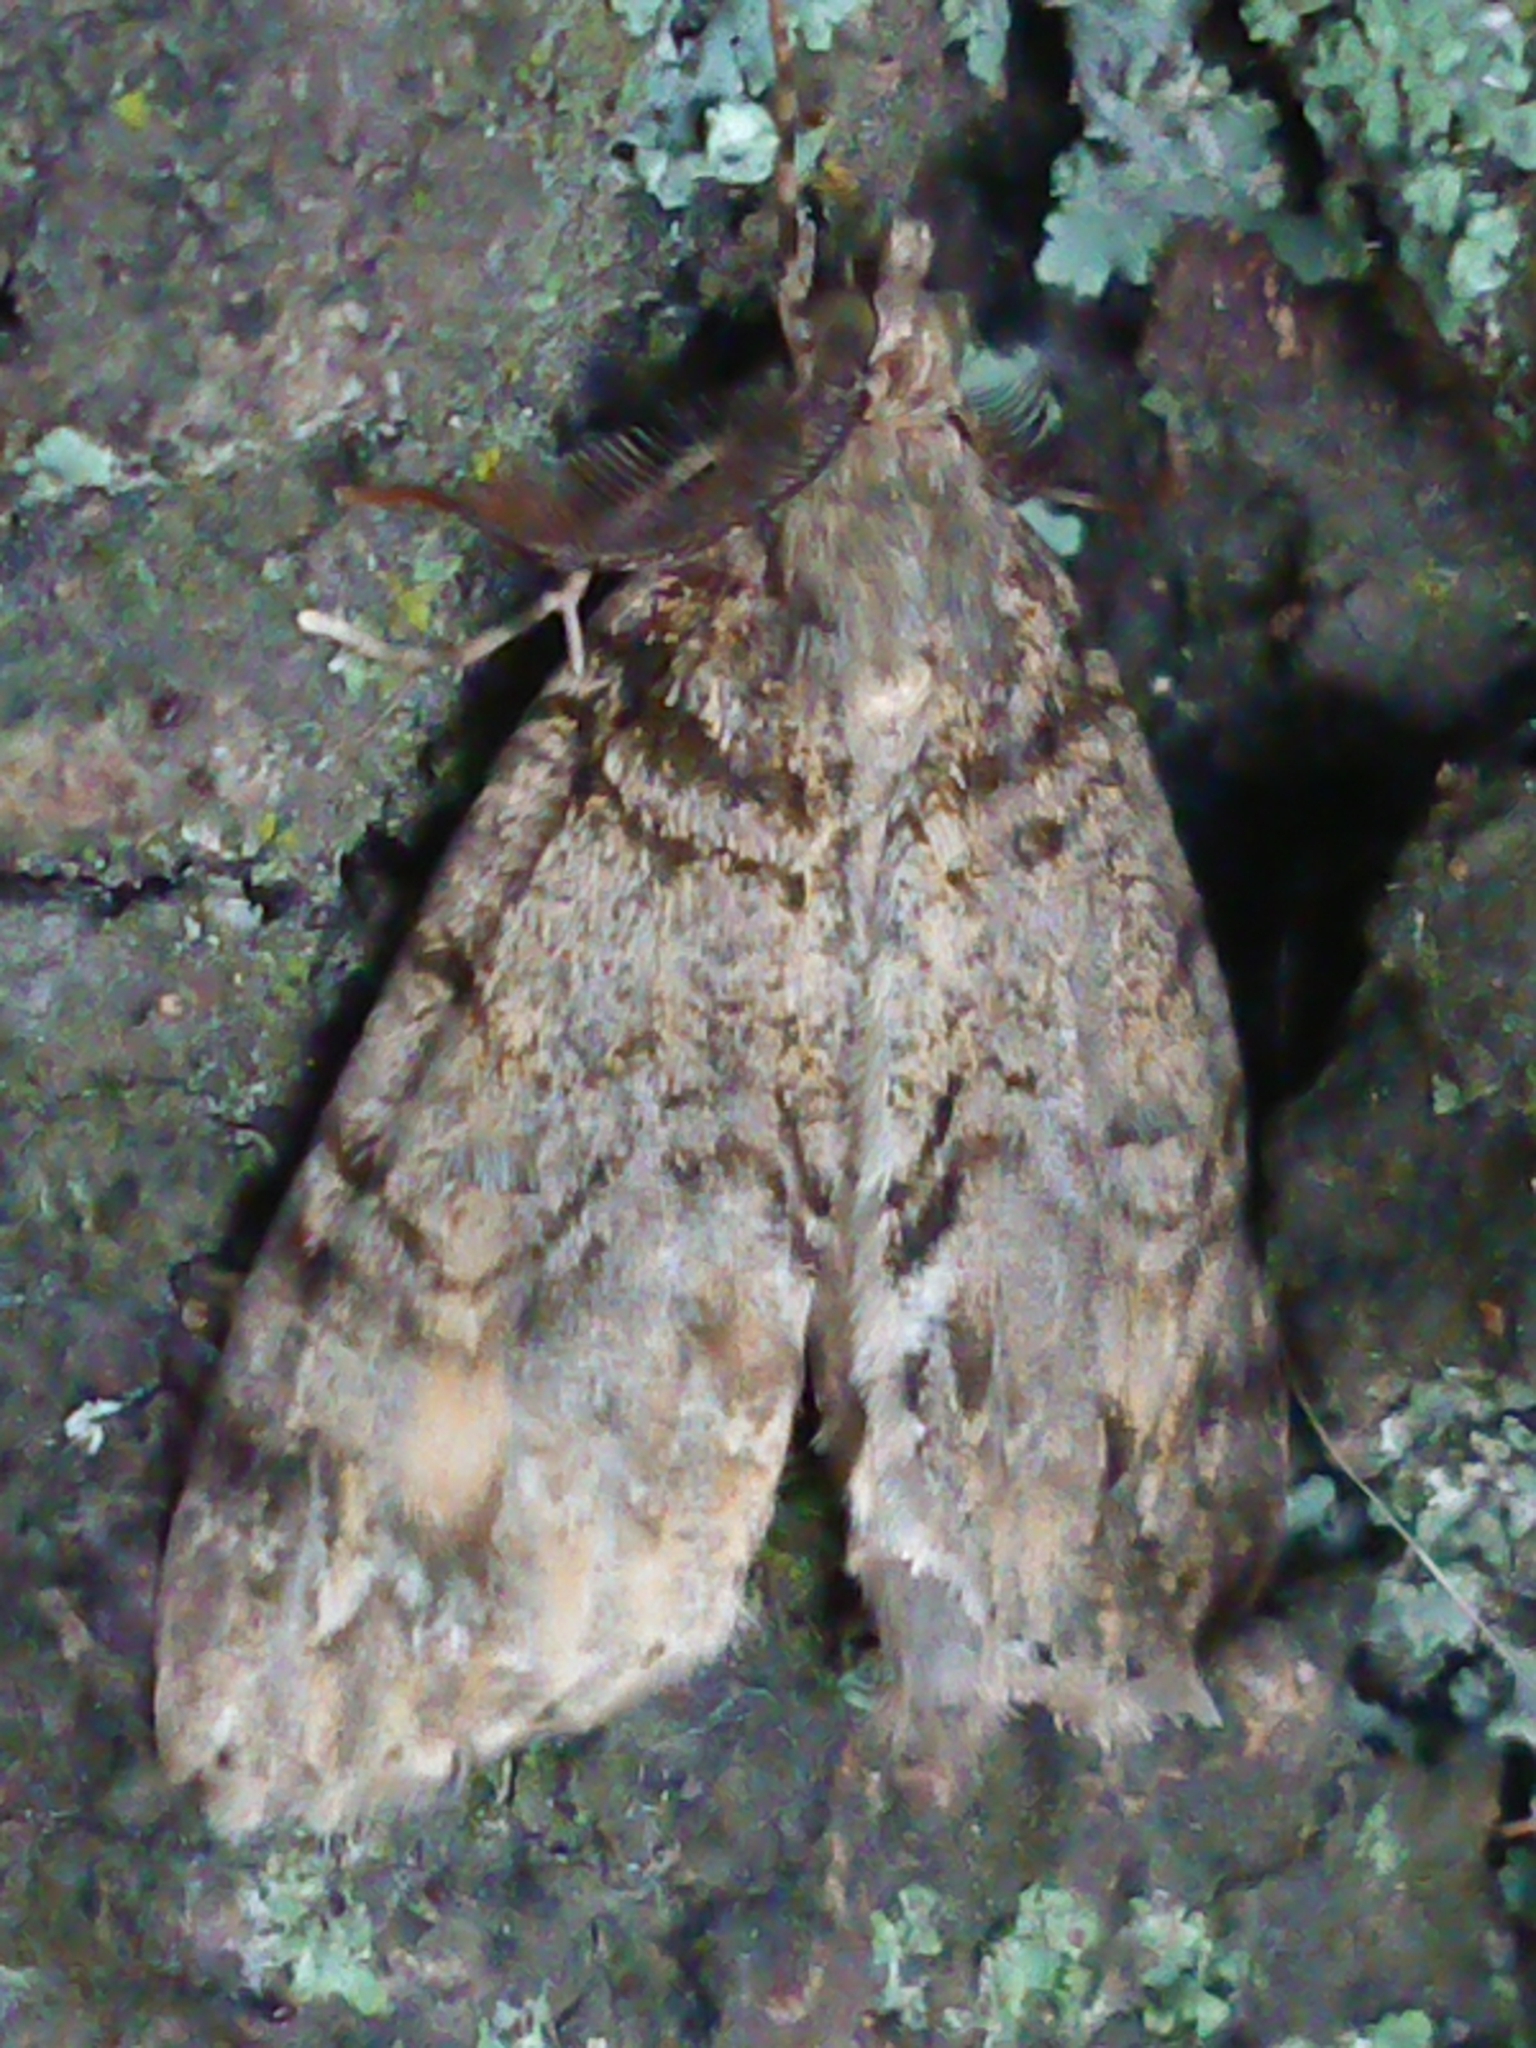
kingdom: Animalia
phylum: Arthropoda
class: Insecta
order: Lepidoptera
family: Geometridae
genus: Pseudocoremia
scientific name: Pseudocoremia suavis
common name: Common forest looper
